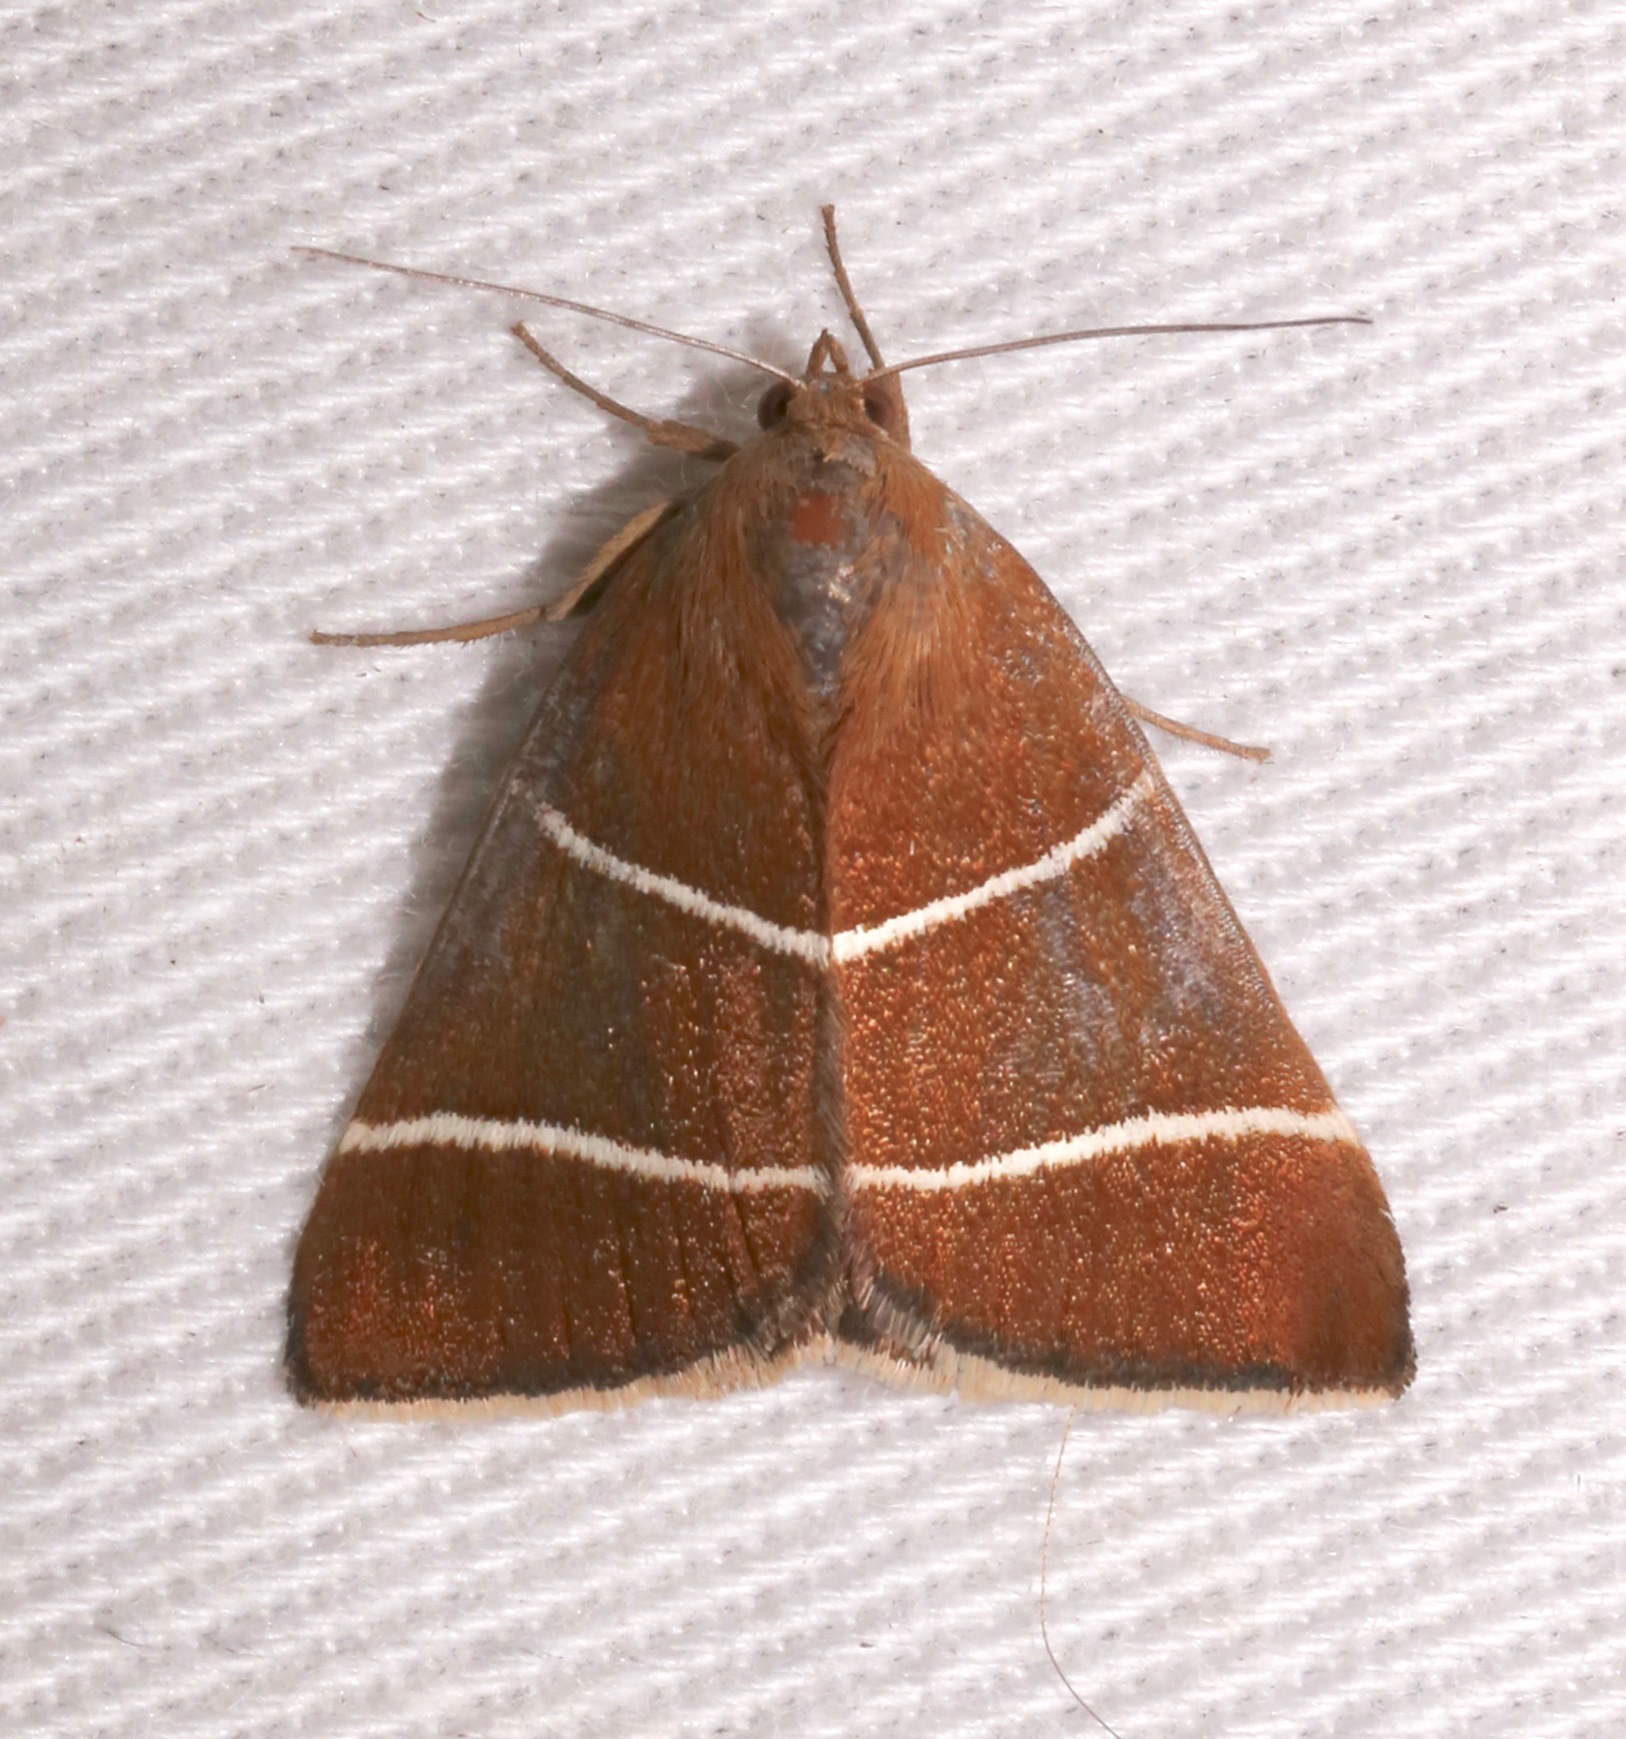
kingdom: Animalia
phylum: Arthropoda
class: Insecta
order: Lepidoptera
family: Erebidae
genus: Argyrostrotis
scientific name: Argyrostrotis quadrifilaris
